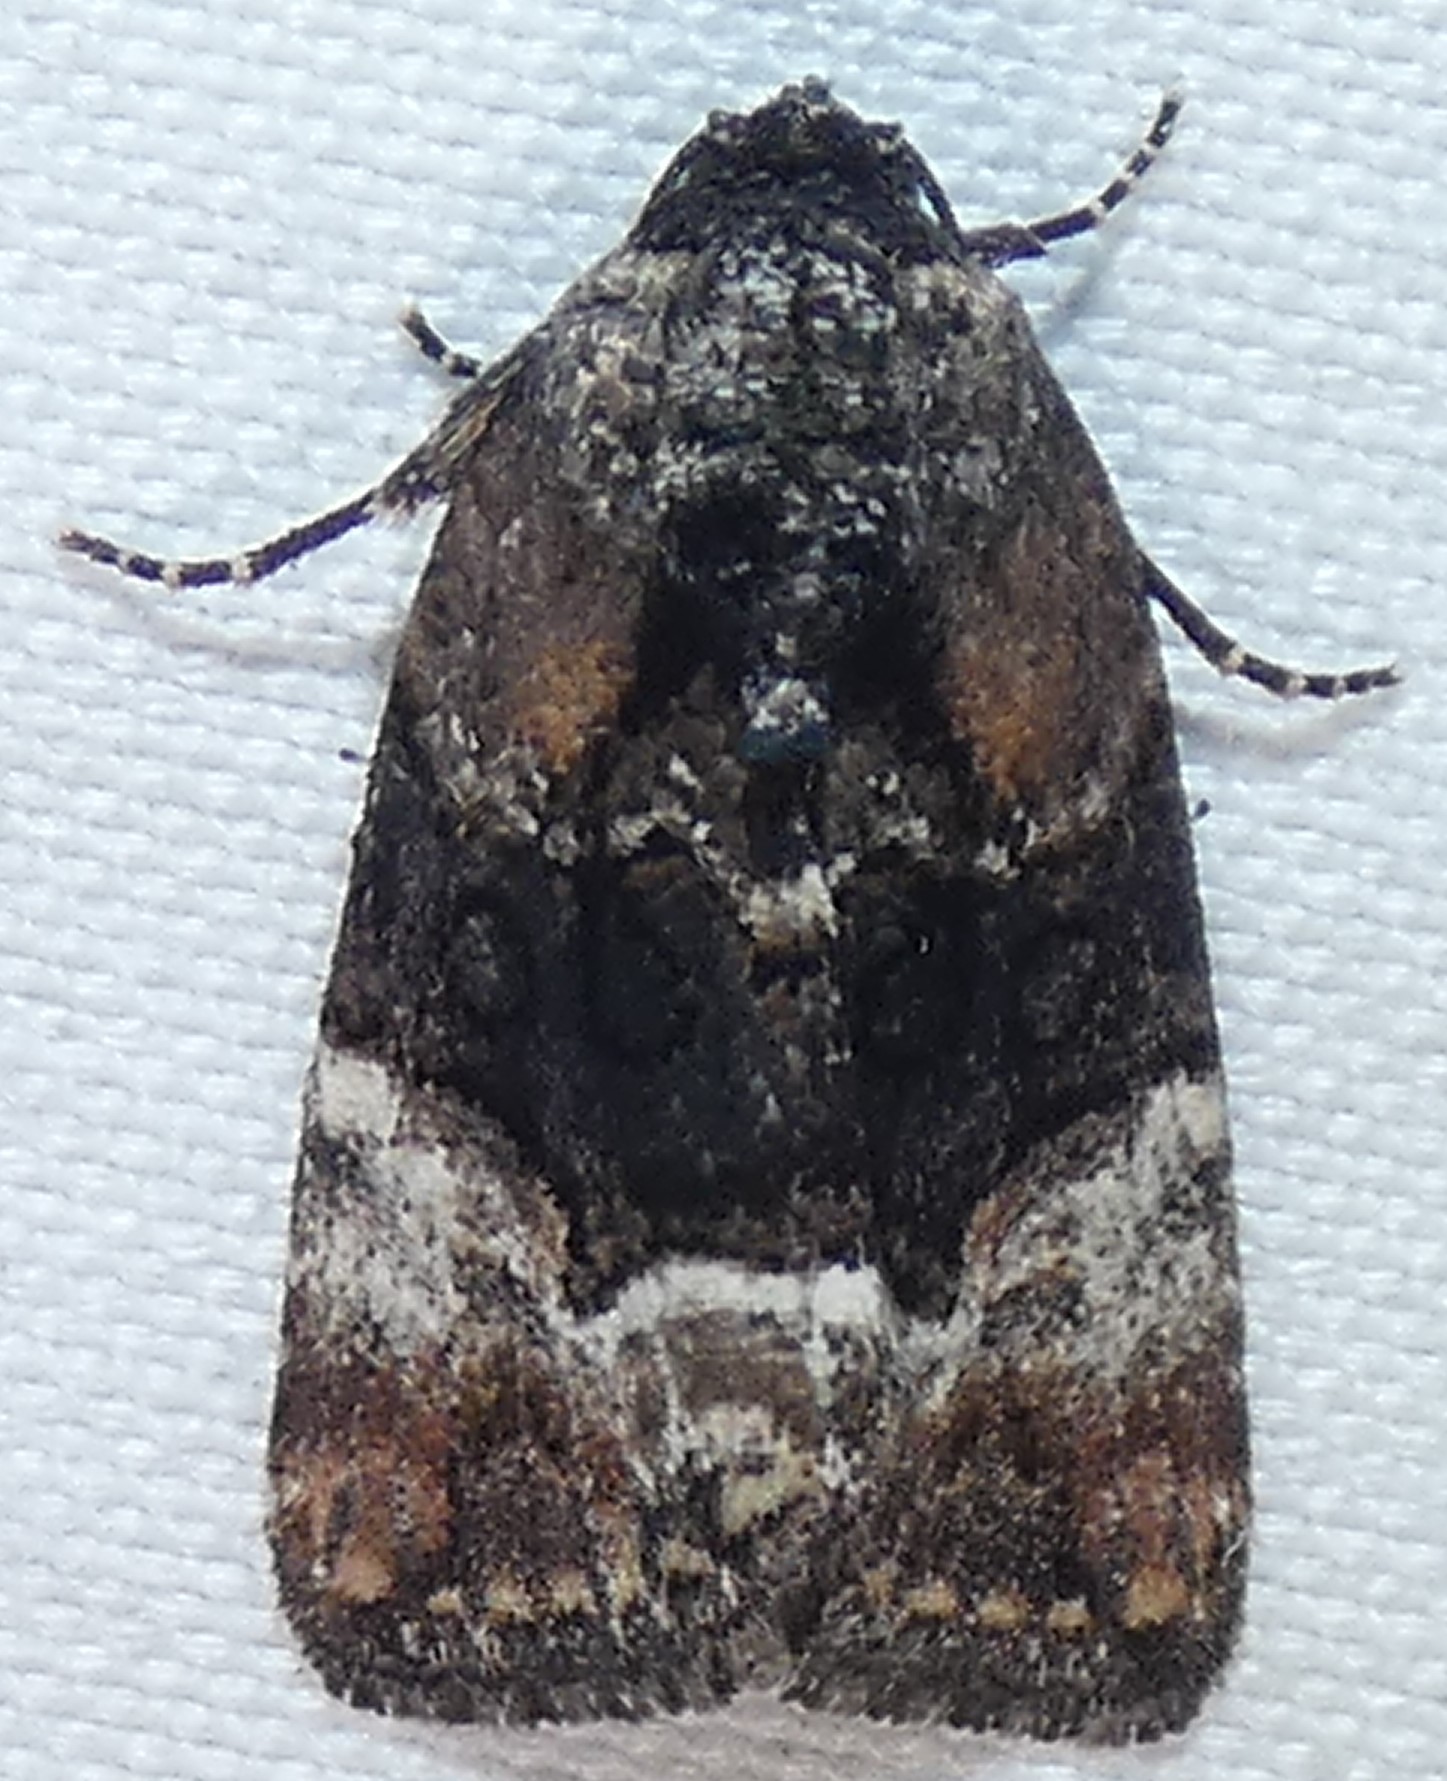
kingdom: Animalia
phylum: Arthropoda
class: Insecta
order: Lepidoptera
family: Noctuidae
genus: Elaphria
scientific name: Elaphria georgei
